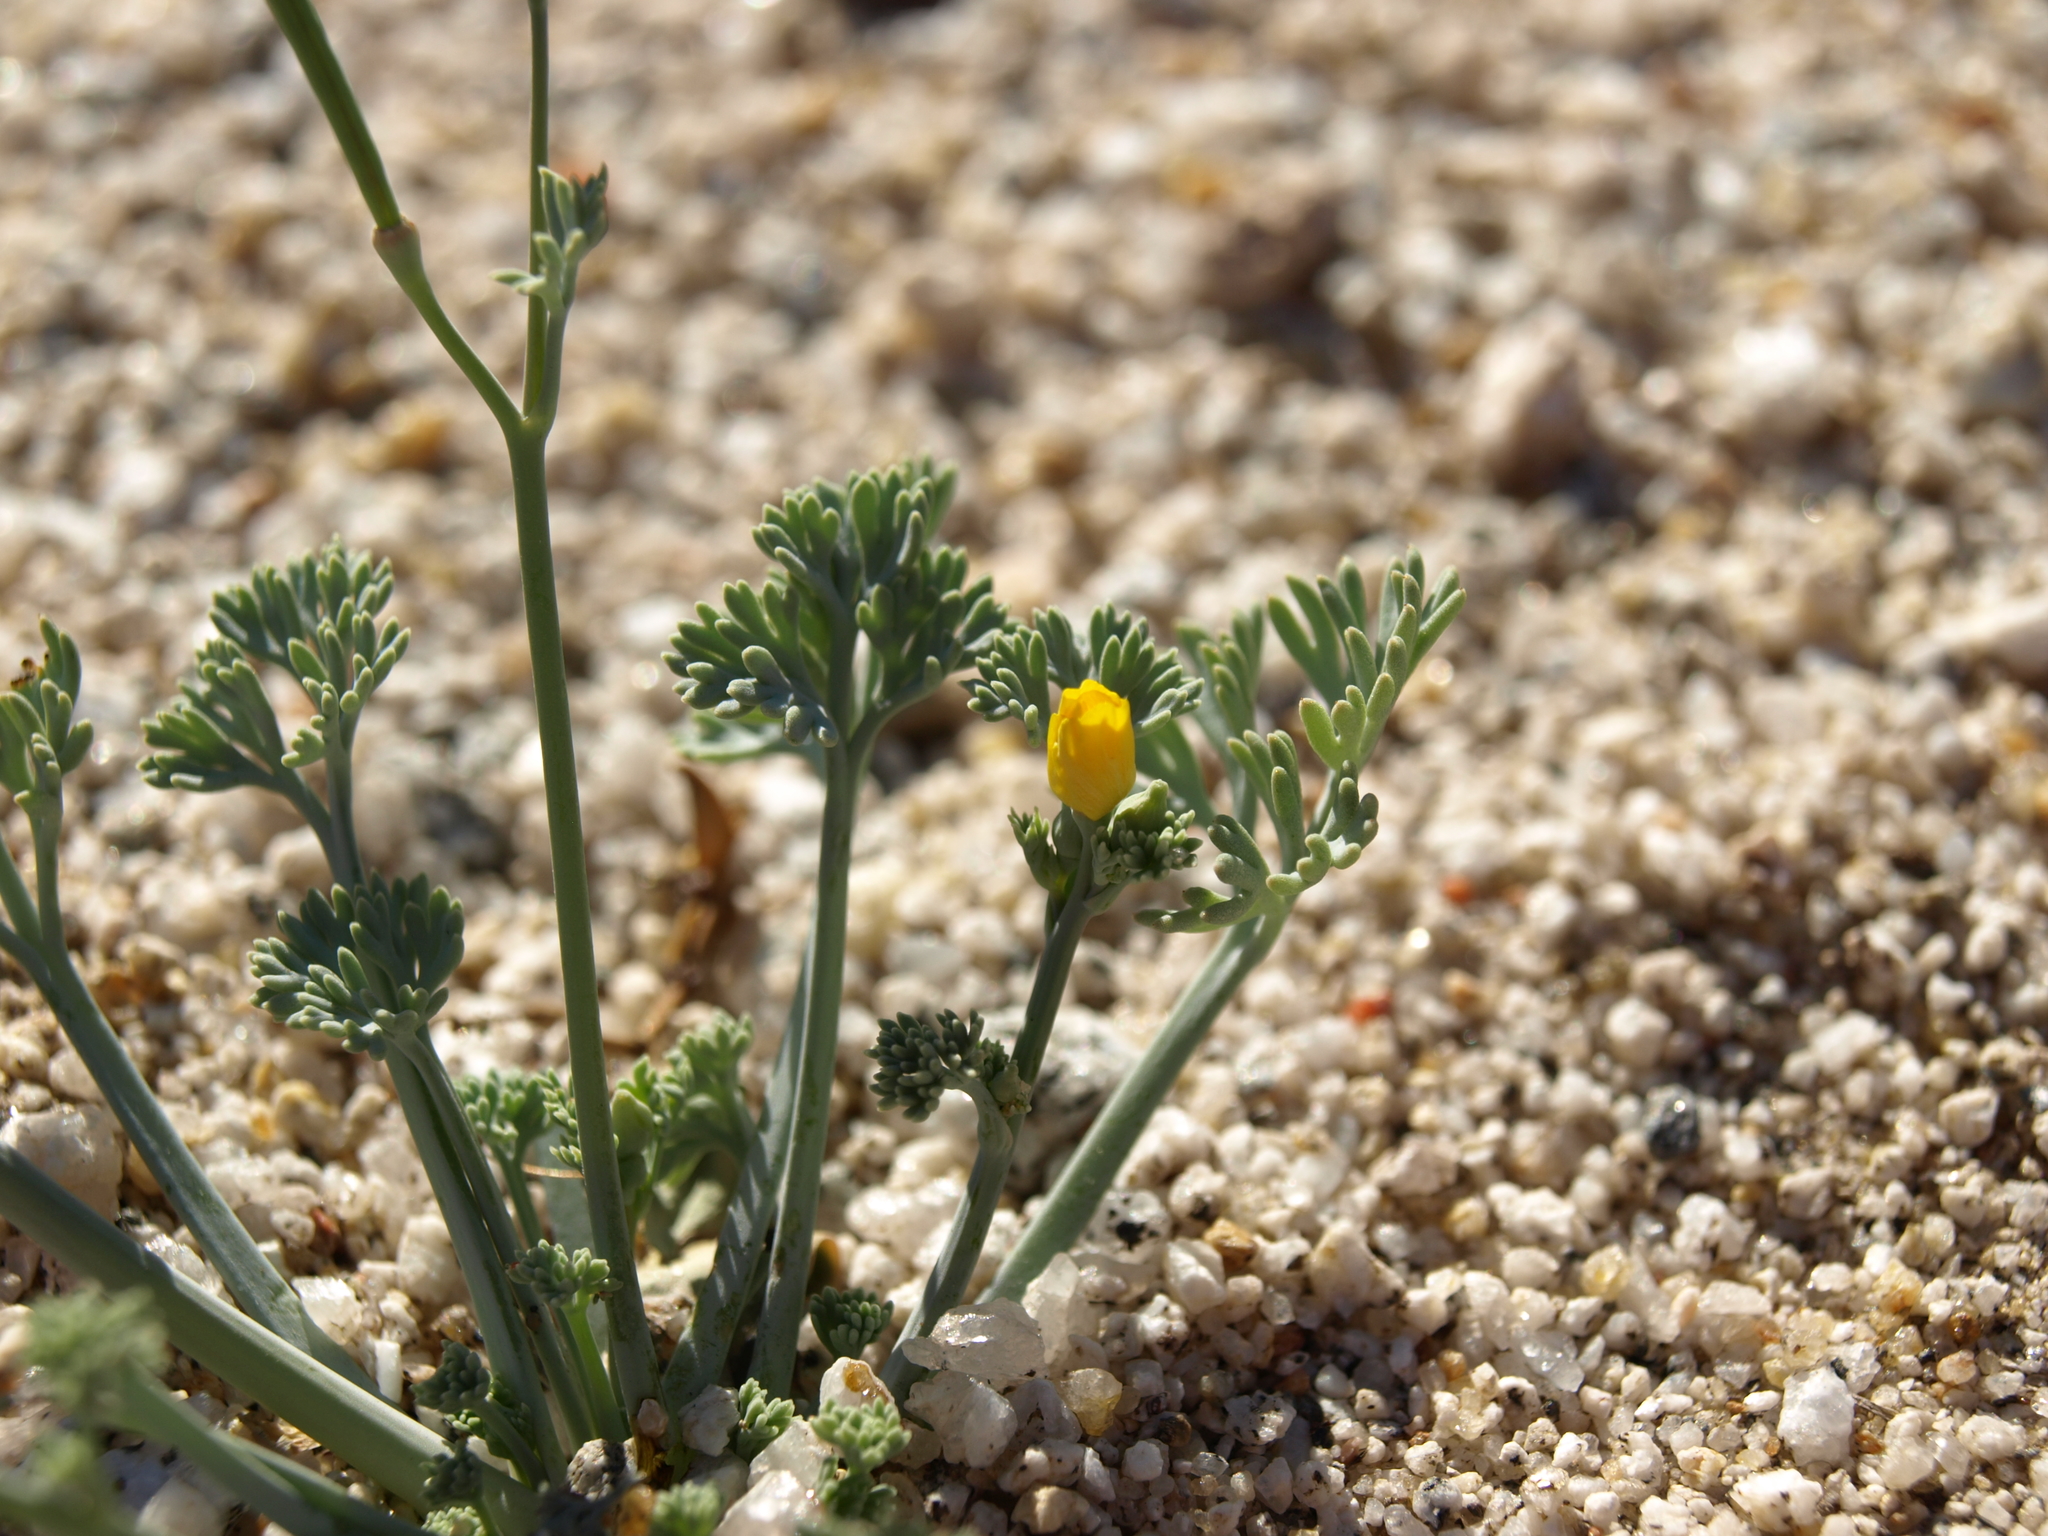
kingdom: Plantae
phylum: Tracheophyta
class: Magnoliopsida
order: Ranunculales
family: Papaveraceae
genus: Eschscholzia
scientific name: Eschscholzia minutiflora
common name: Small-flower california-poppy
